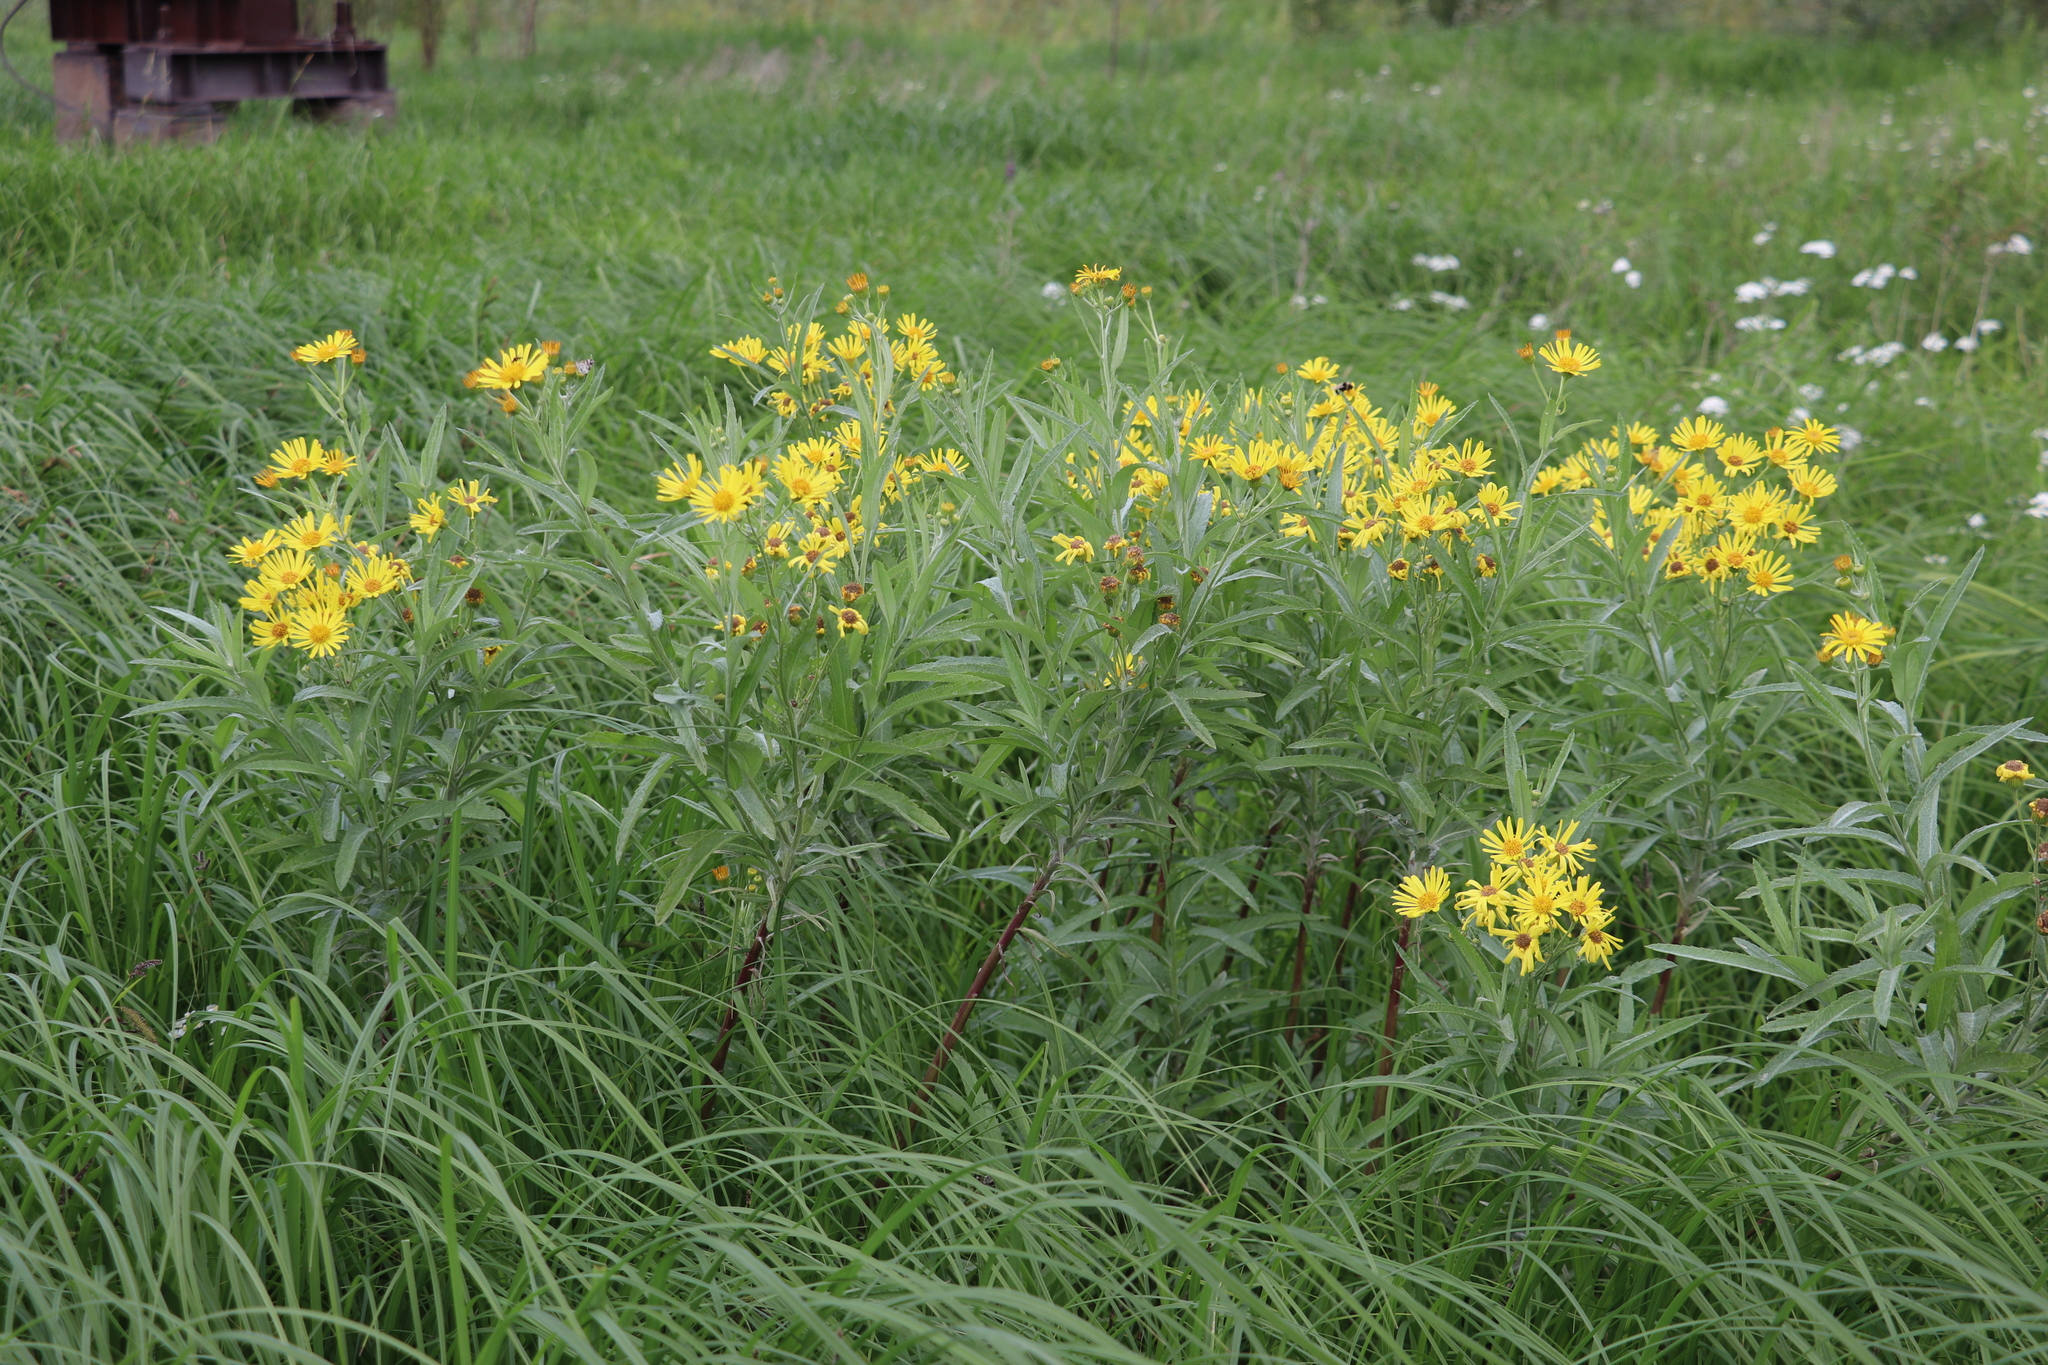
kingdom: Plantae
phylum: Tracheophyta
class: Magnoliopsida
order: Asterales
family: Asteraceae
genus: Jacobaea
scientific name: Jacobaea paludosa
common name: Fen ragwort
